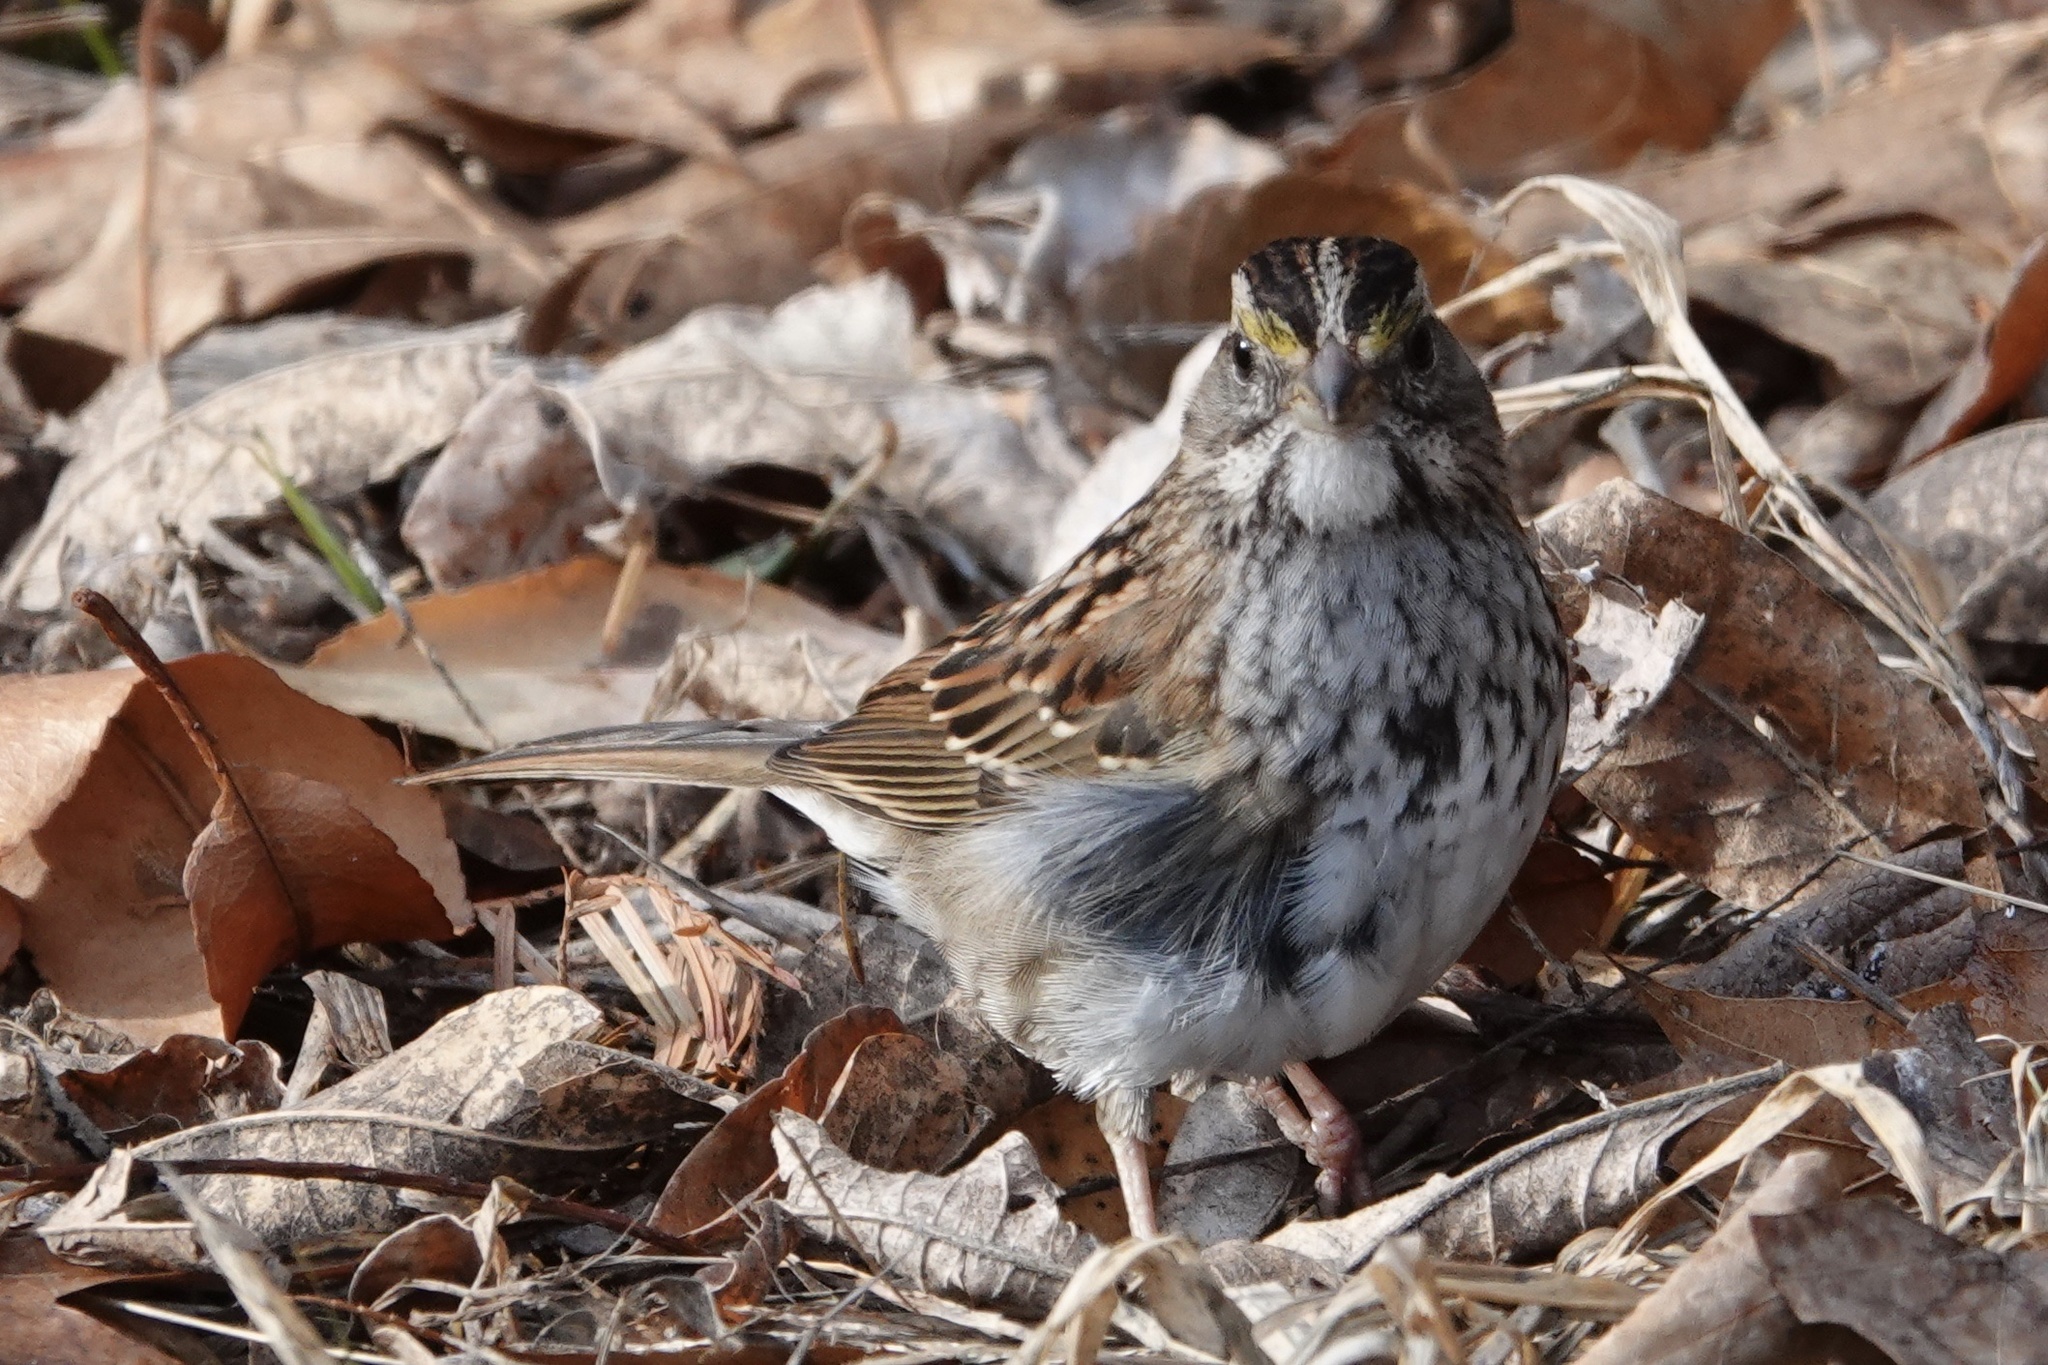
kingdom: Animalia
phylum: Chordata
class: Aves
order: Passeriformes
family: Passerellidae
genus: Zonotrichia
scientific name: Zonotrichia albicollis
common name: White-throated sparrow
